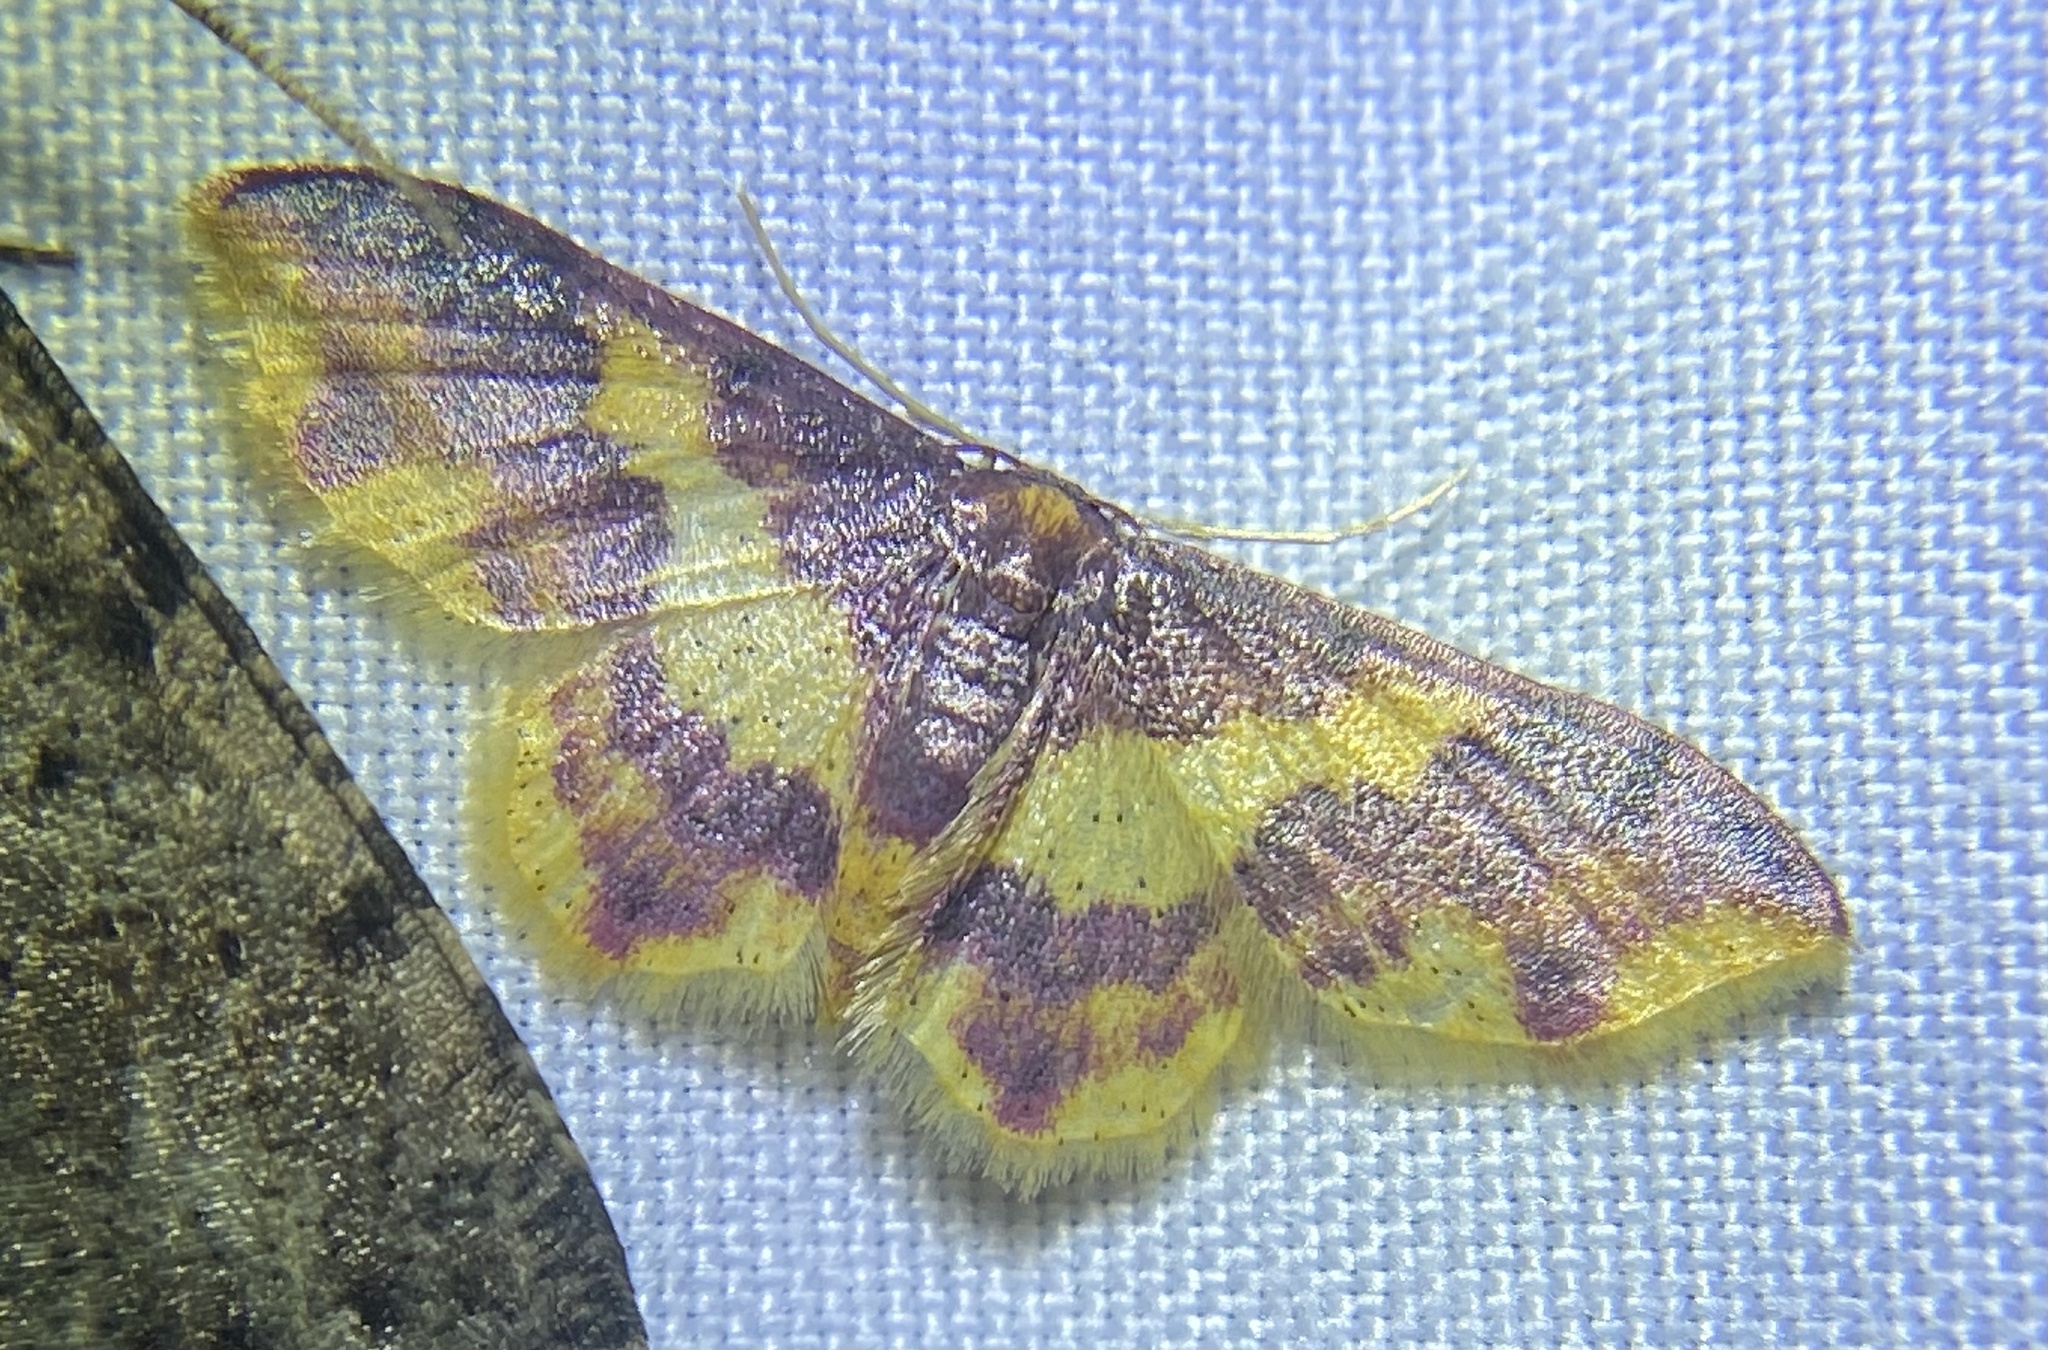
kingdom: Animalia
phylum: Arthropoda
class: Insecta
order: Lepidoptera
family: Geometridae
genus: Lophosis
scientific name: Lophosis labeculata
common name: Stained lophosis moth
